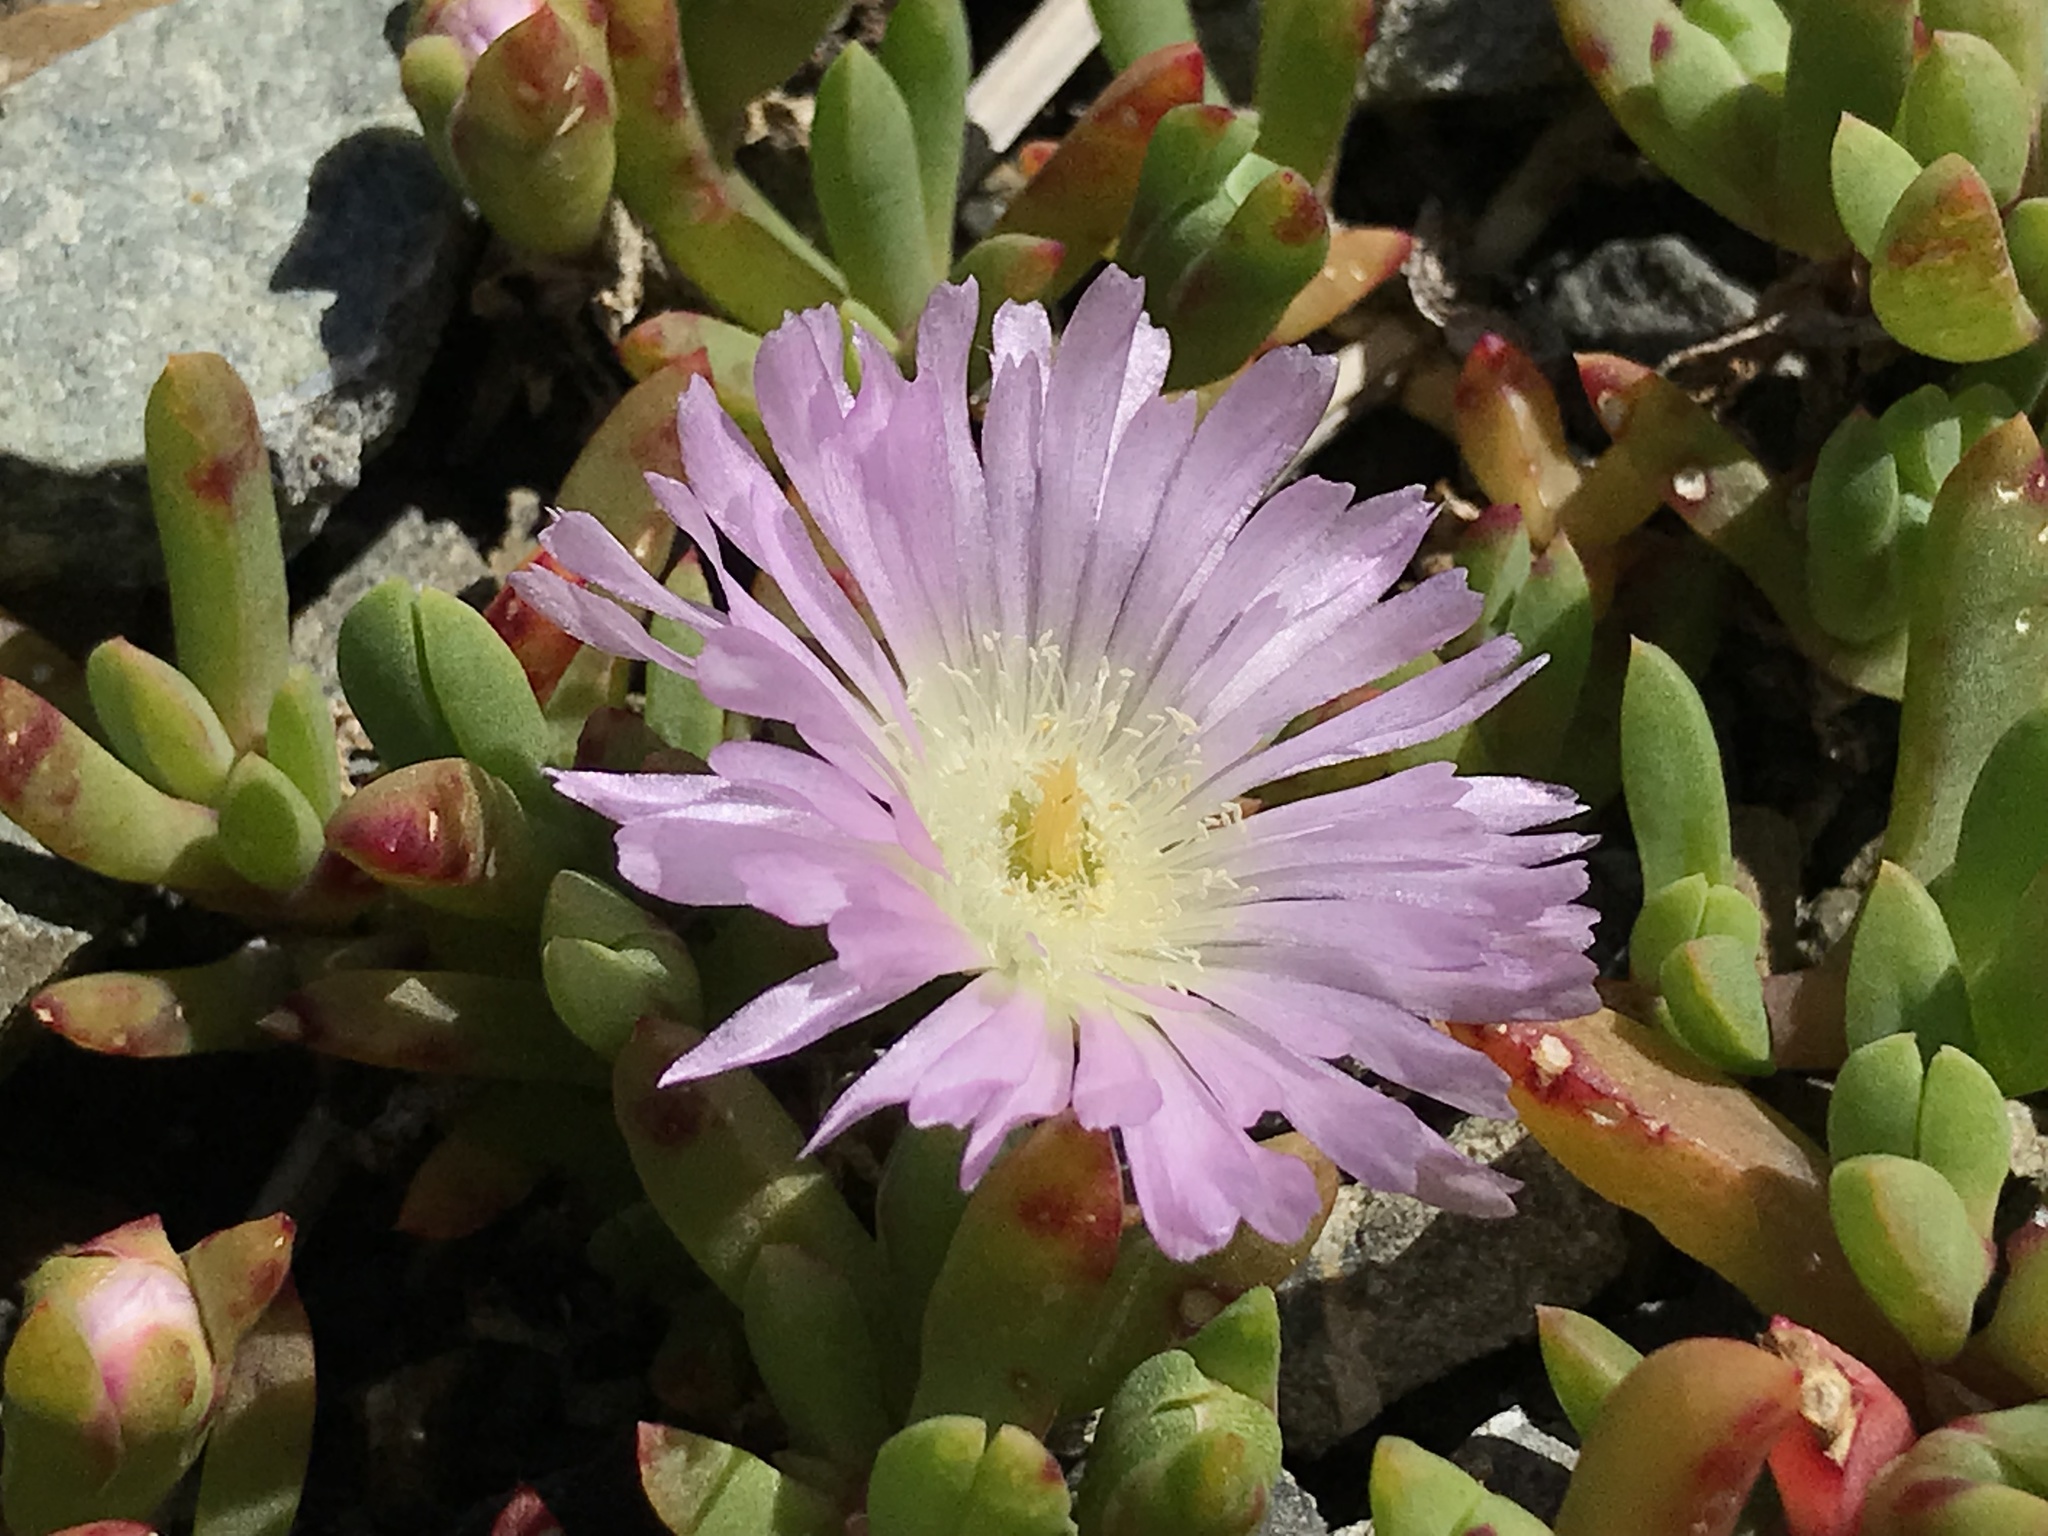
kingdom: Plantae
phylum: Tracheophyta
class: Magnoliopsida
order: Caryophyllales
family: Aizoaceae
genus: Disphyma
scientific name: Disphyma australe
